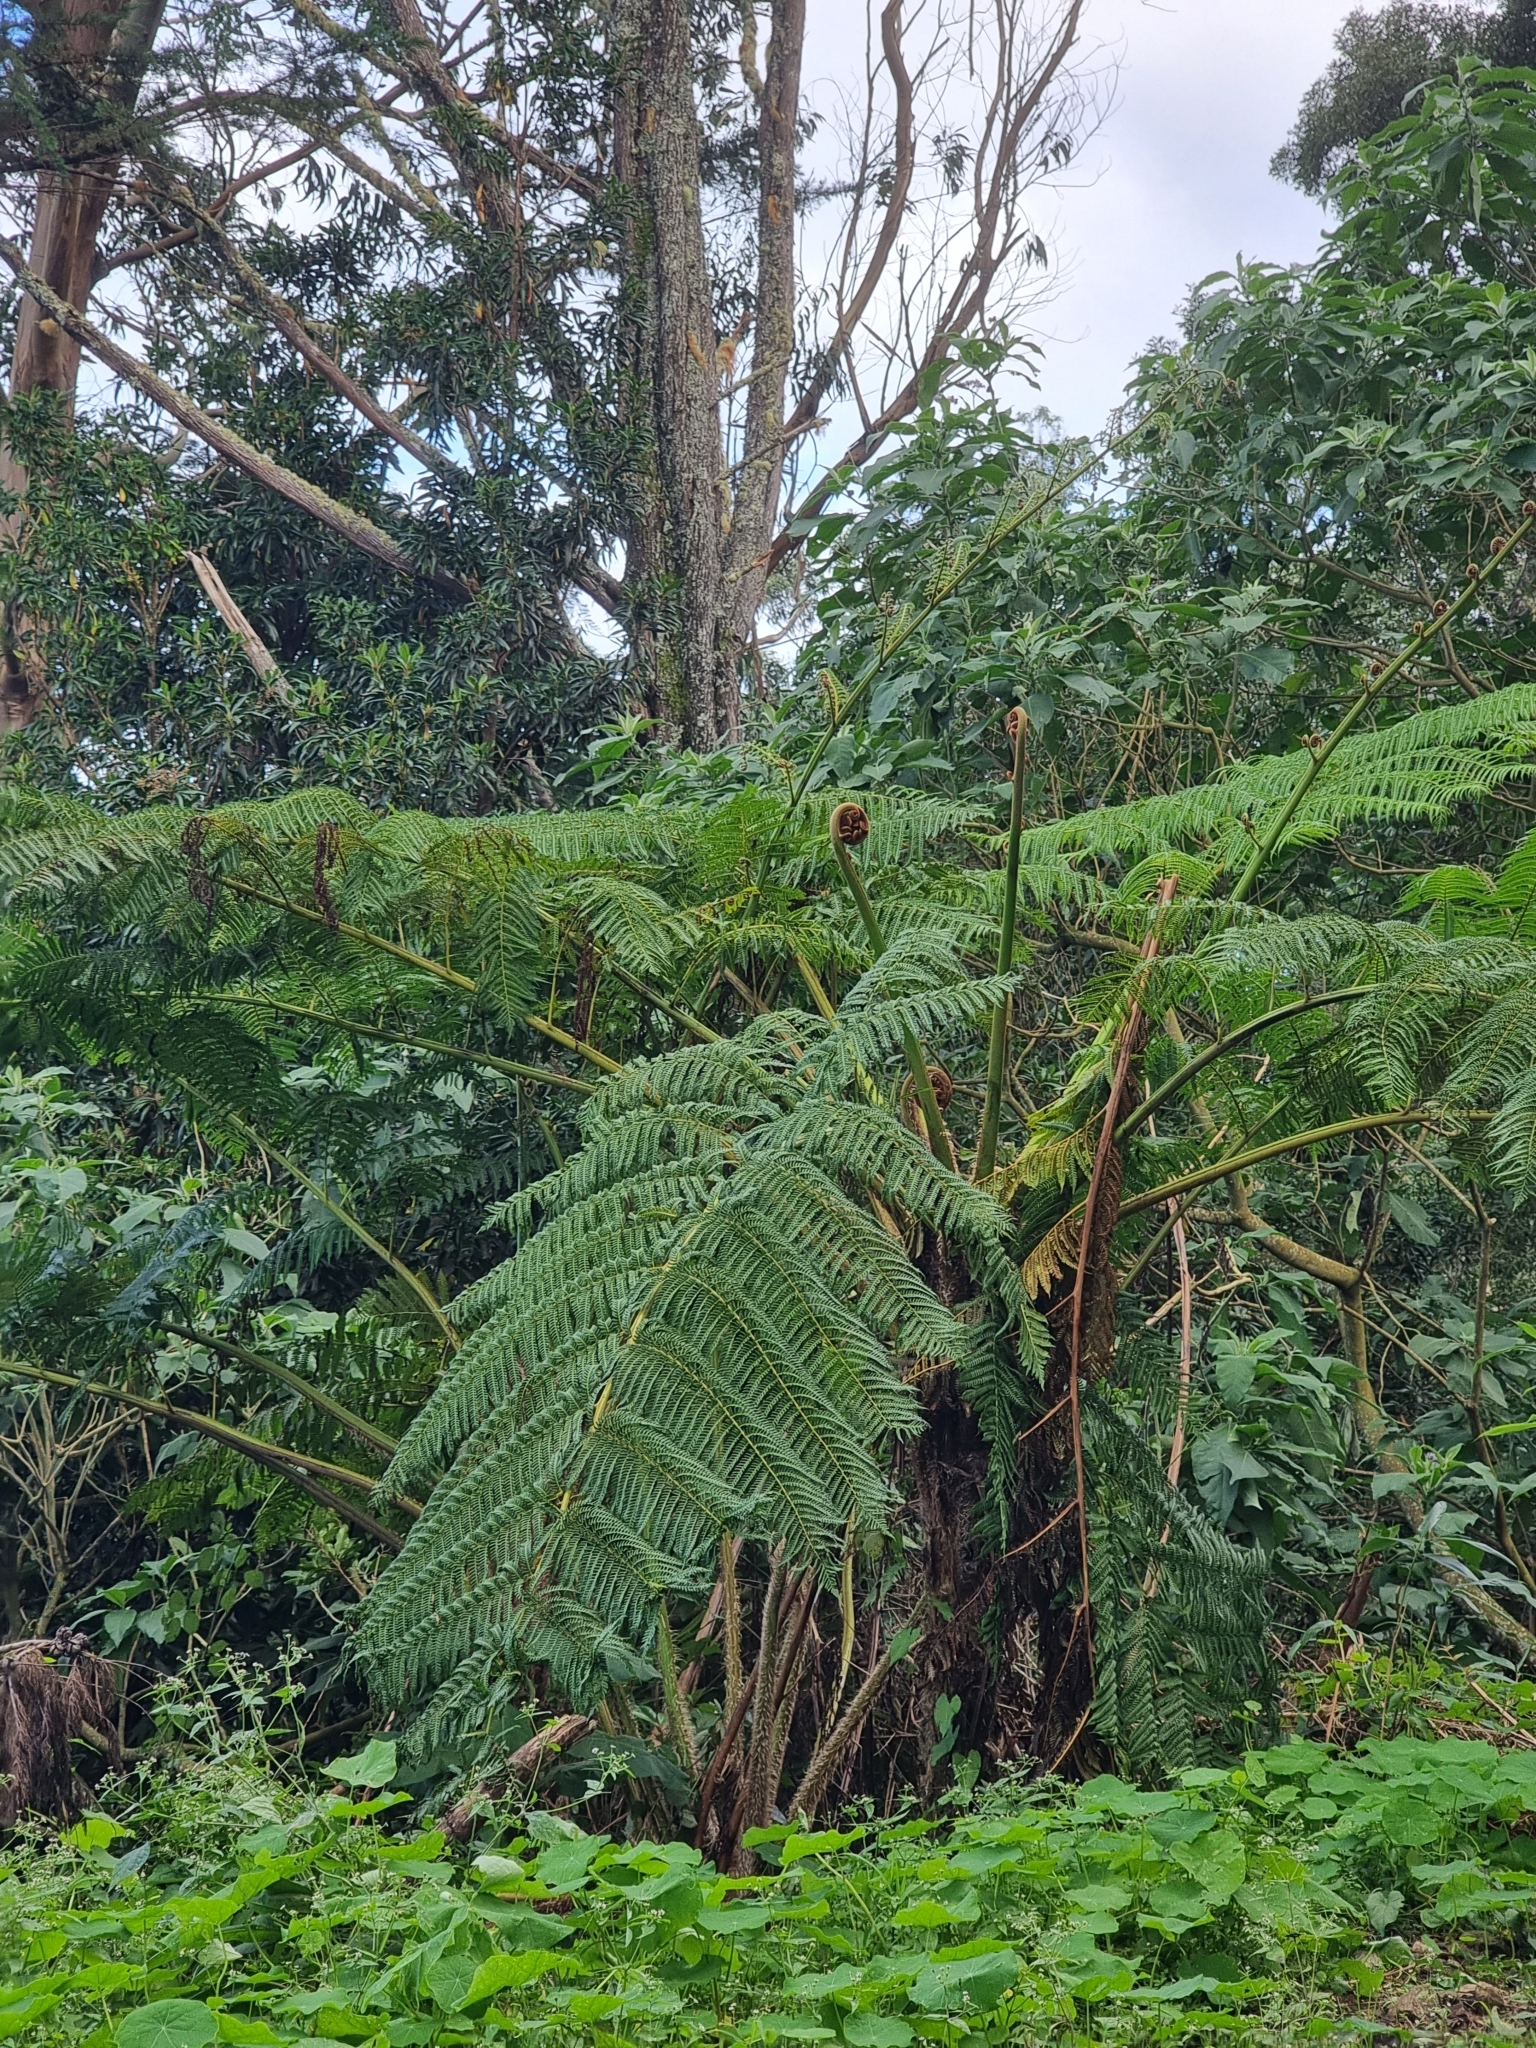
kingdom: Plantae
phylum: Tracheophyta
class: Polypodiopsida
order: Cyatheales
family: Cyatheaceae
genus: Sphaeropteris
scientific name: Sphaeropteris cooperi
